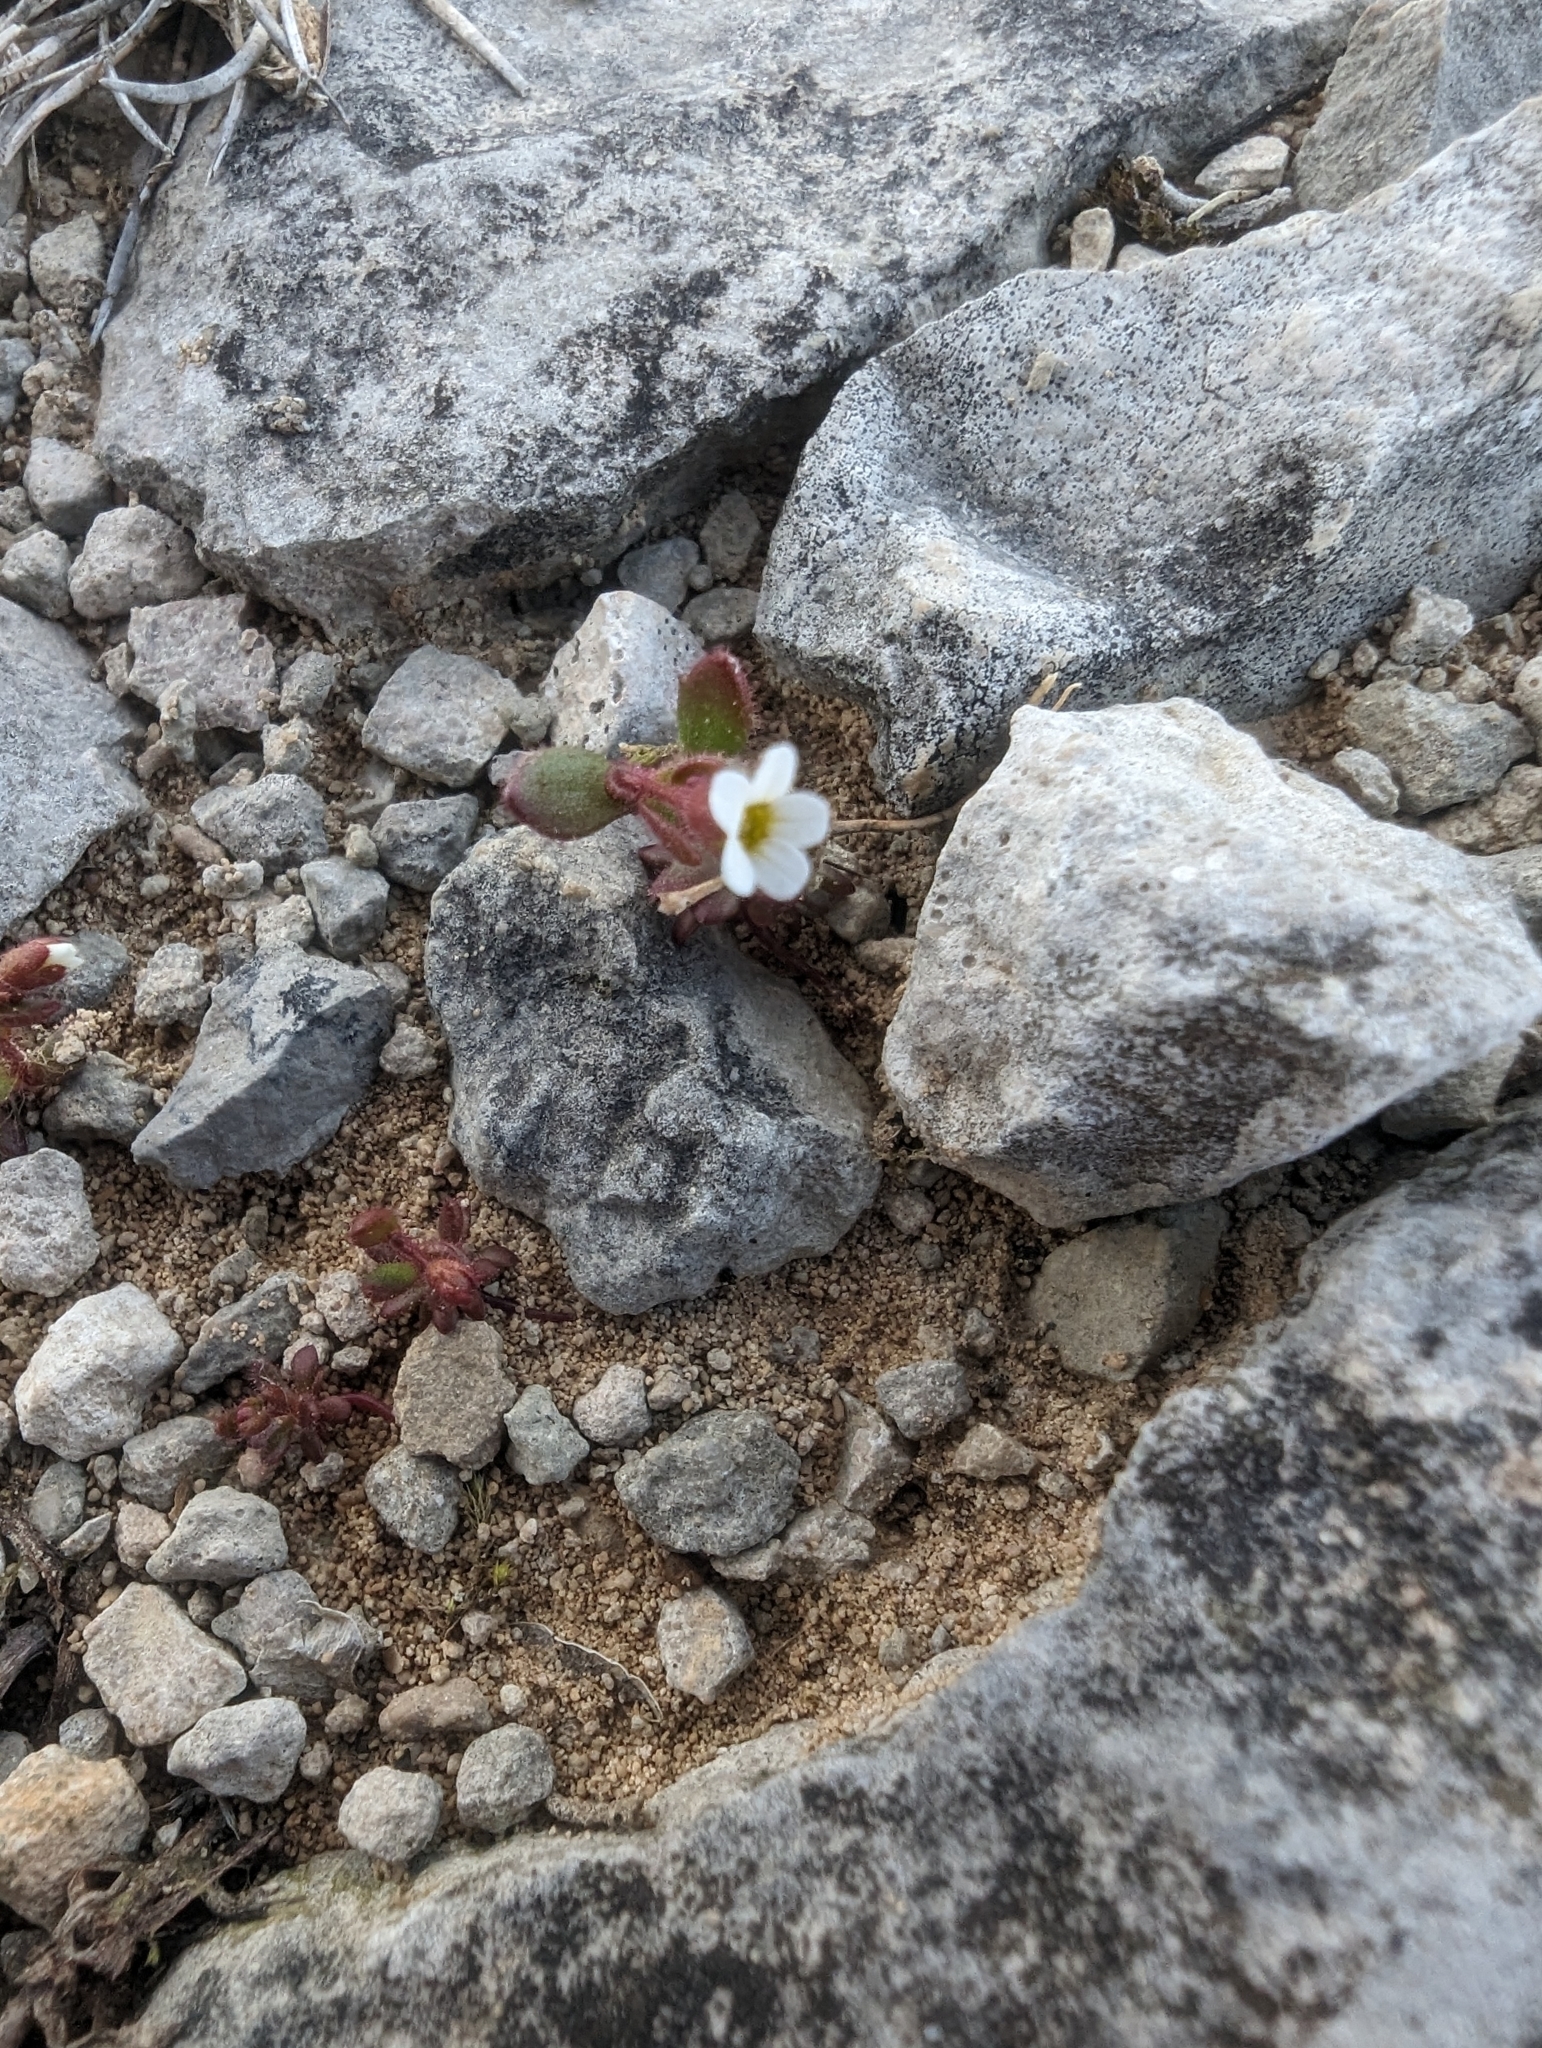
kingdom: Plantae
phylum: Tracheophyta
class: Magnoliopsida
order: Saxifragales
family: Saxifragaceae
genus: Saxifraga
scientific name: Saxifraga tridactylites
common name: Rue-leaved saxifrage
